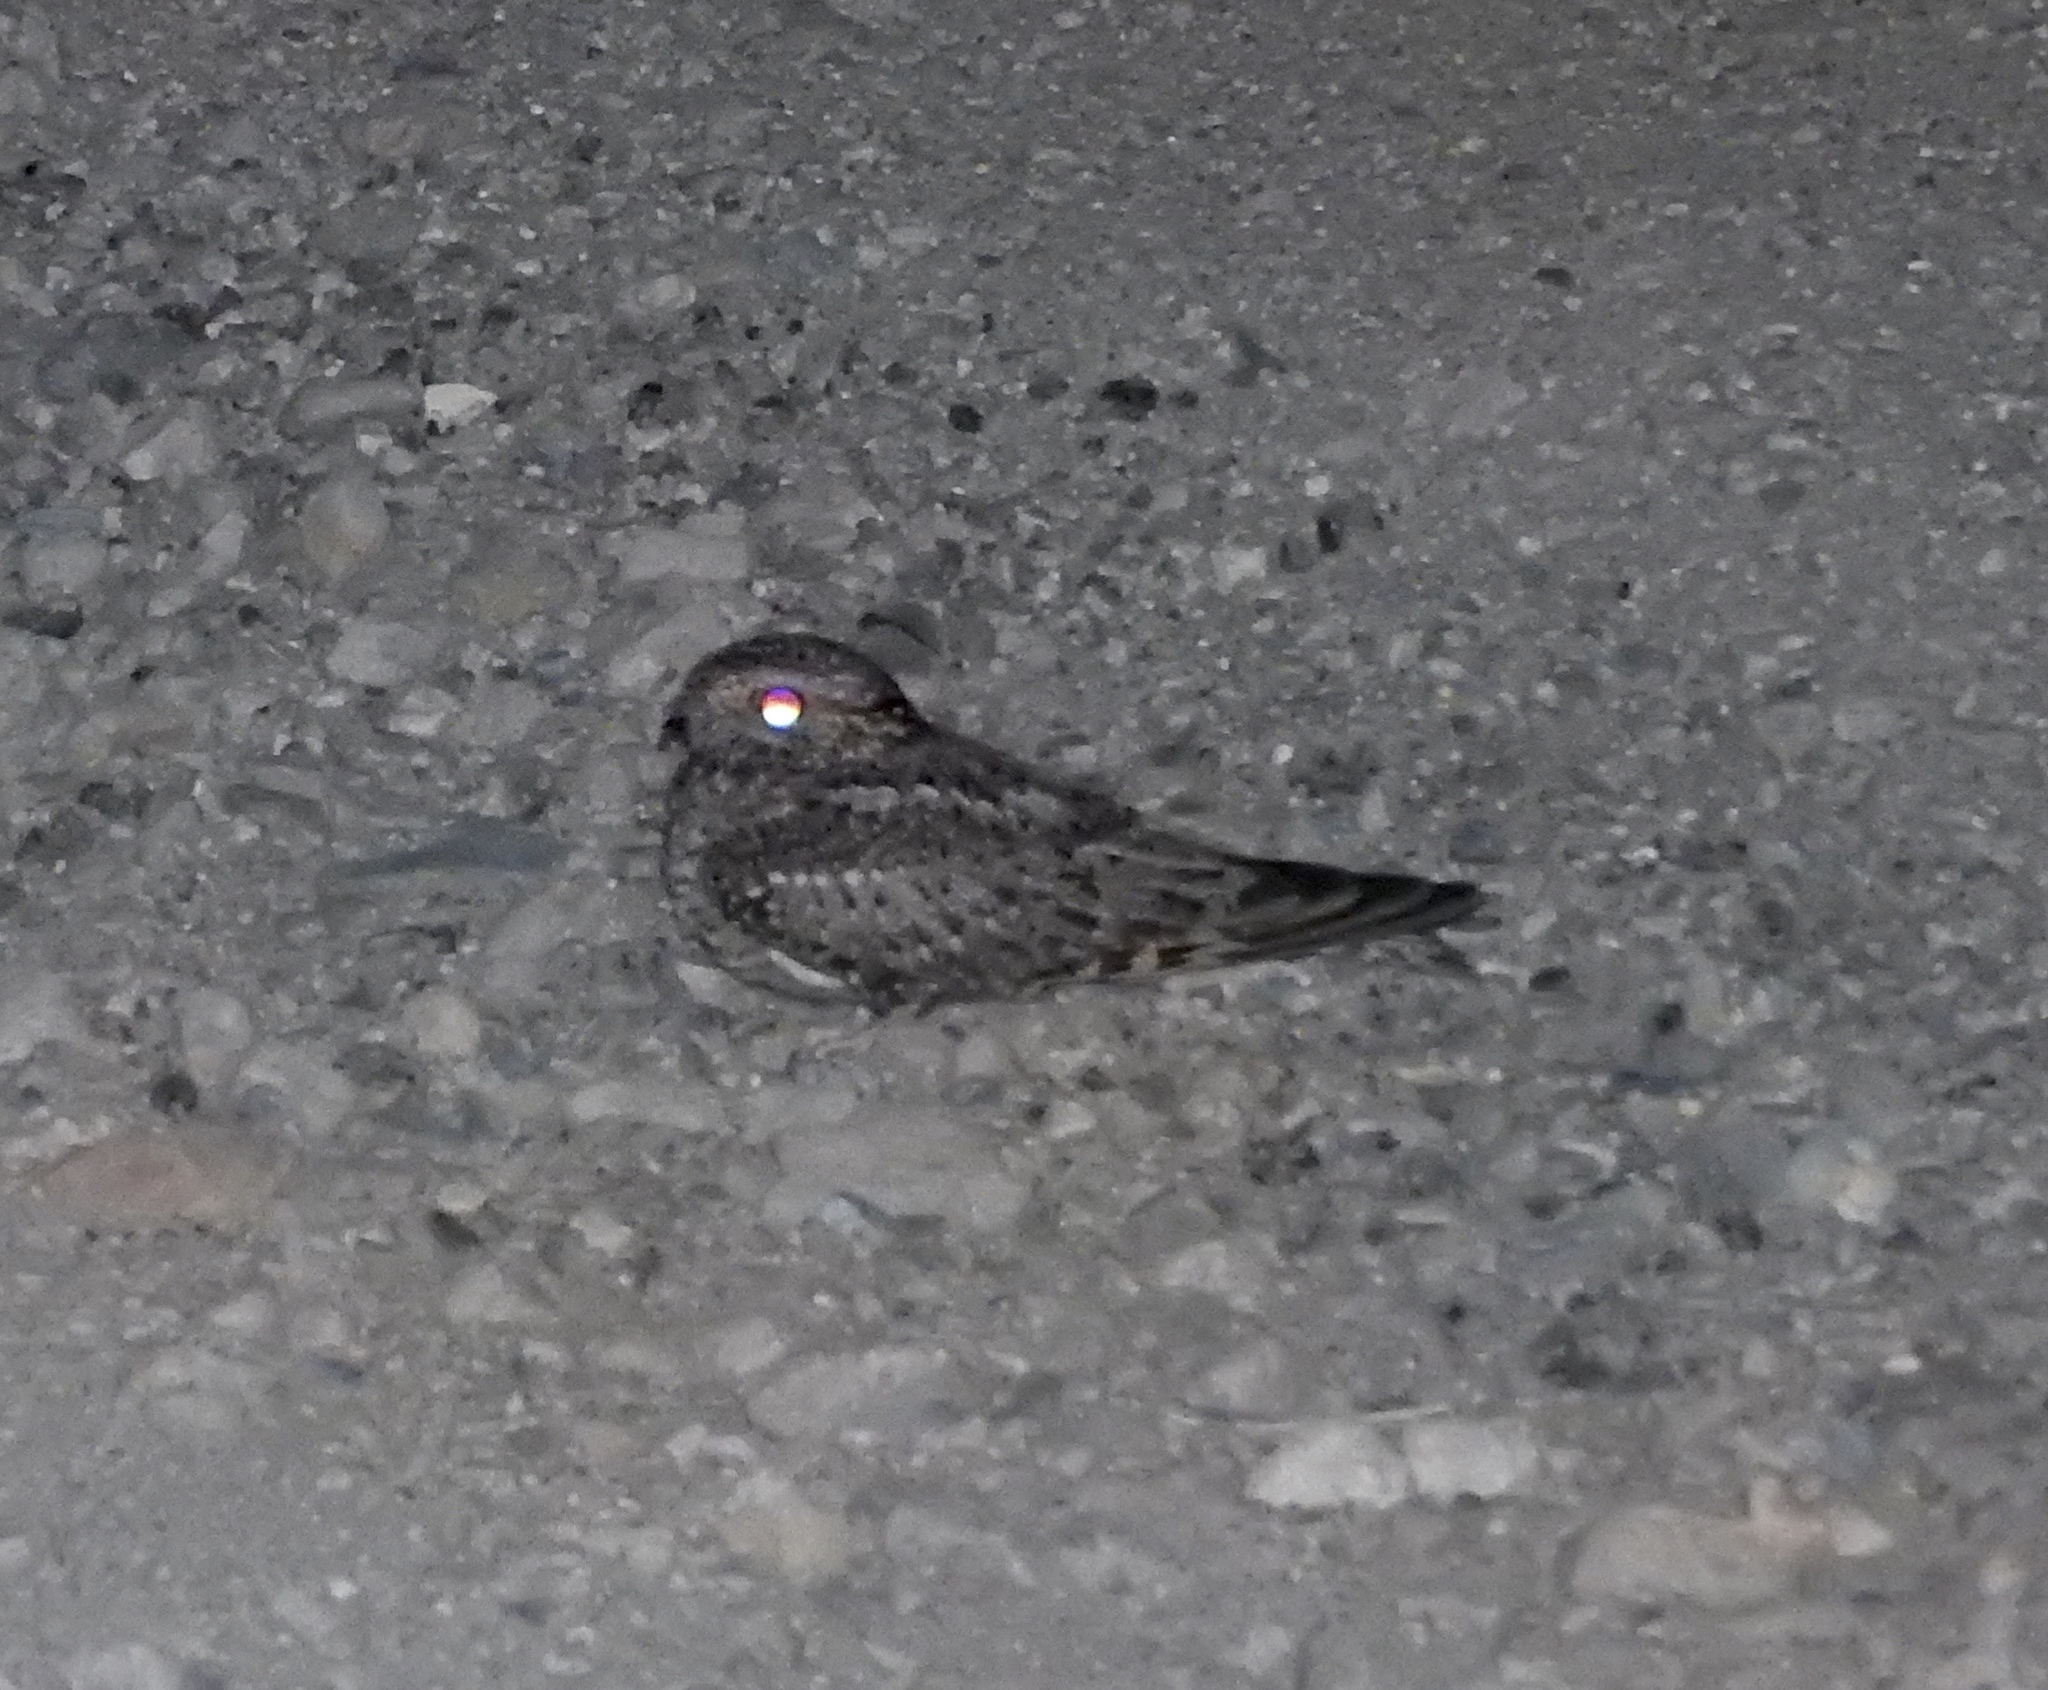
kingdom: Animalia
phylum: Chordata
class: Aves
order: Caprimulgiformes
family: Caprimulgidae
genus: Chordeiles
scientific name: Chordeiles acutipennis
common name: Lesser nighthawk
